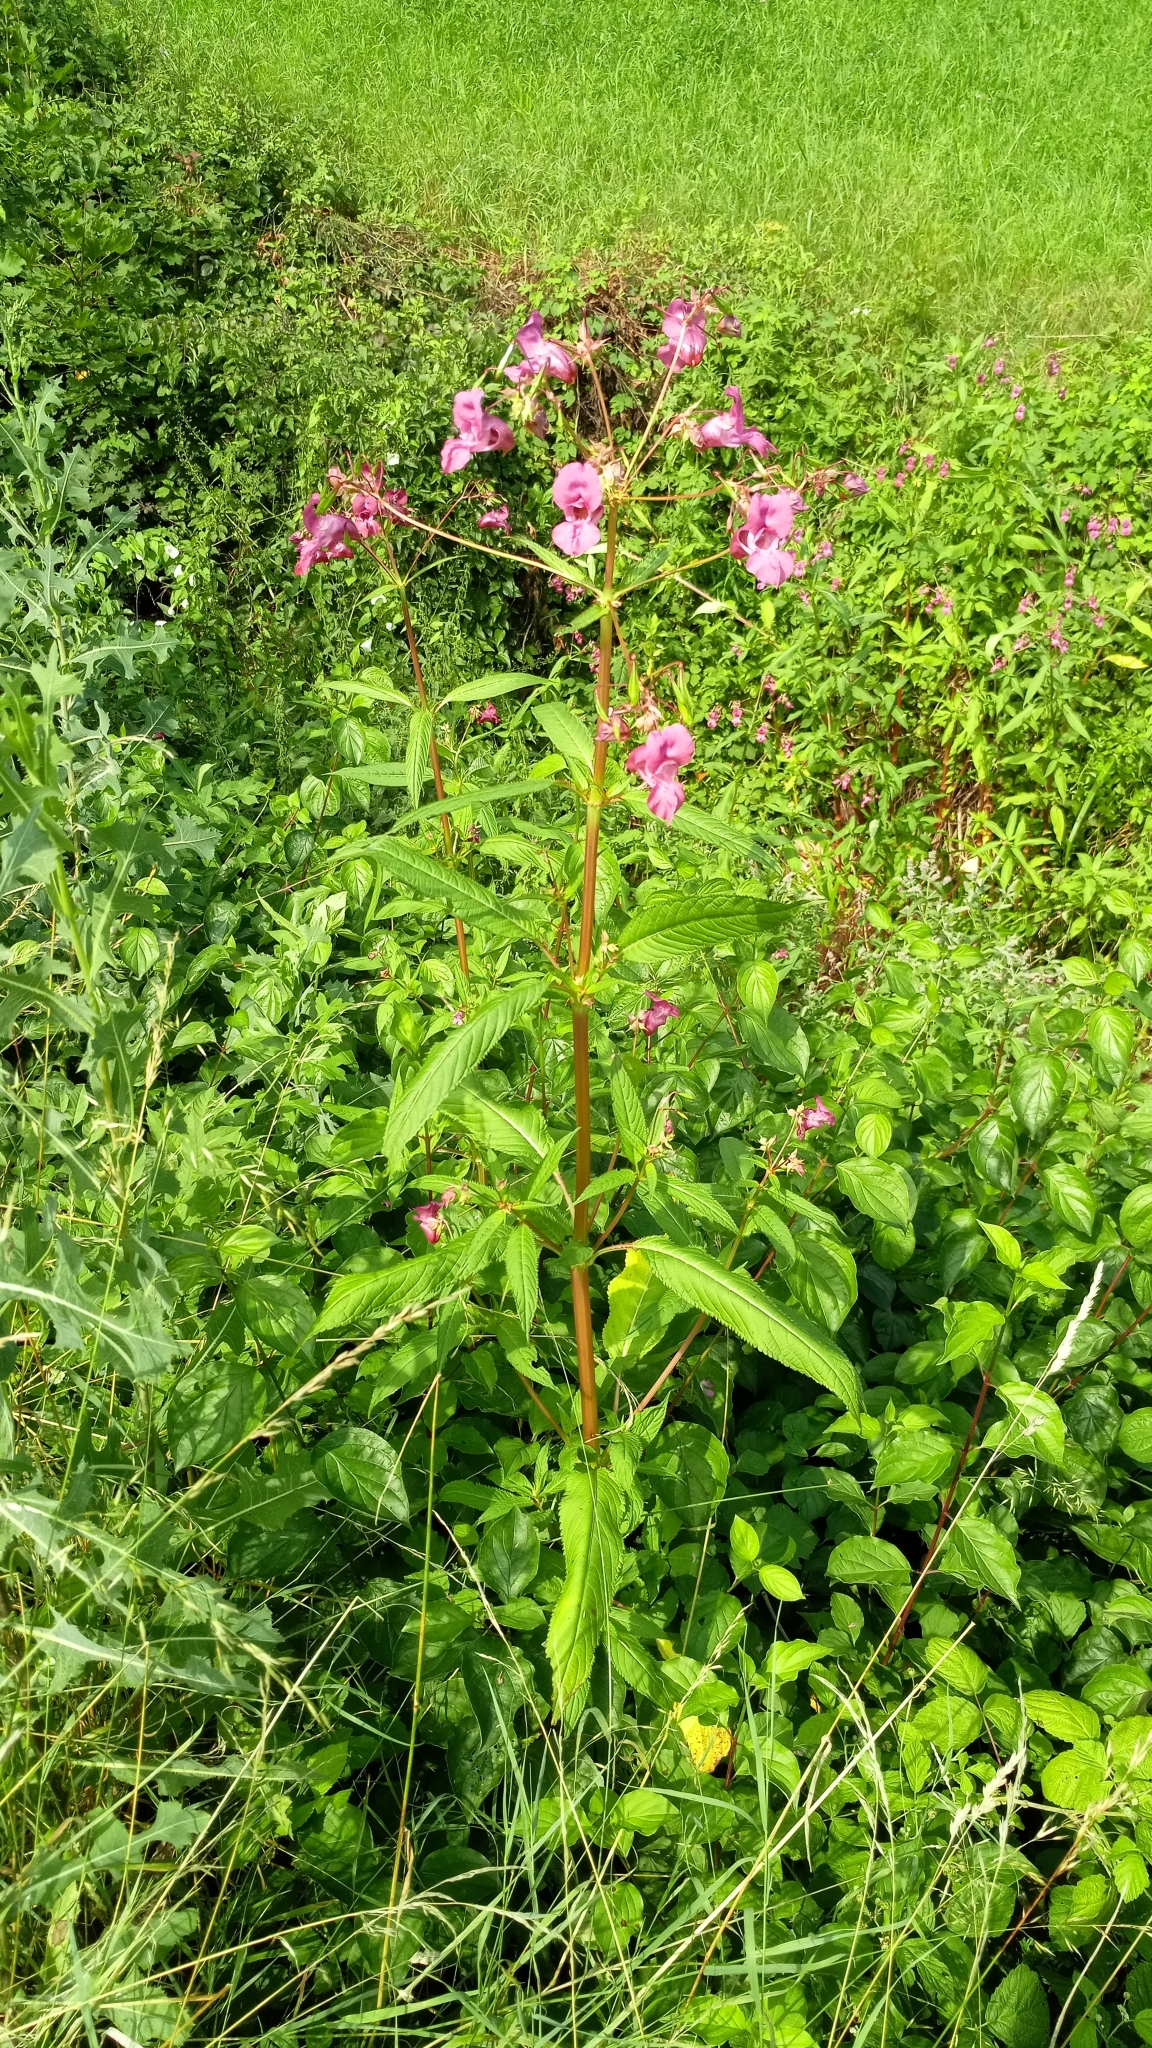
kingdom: Plantae
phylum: Tracheophyta
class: Magnoliopsida
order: Ericales
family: Balsaminaceae
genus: Impatiens
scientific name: Impatiens glandulifera
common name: Himalayan balsam
